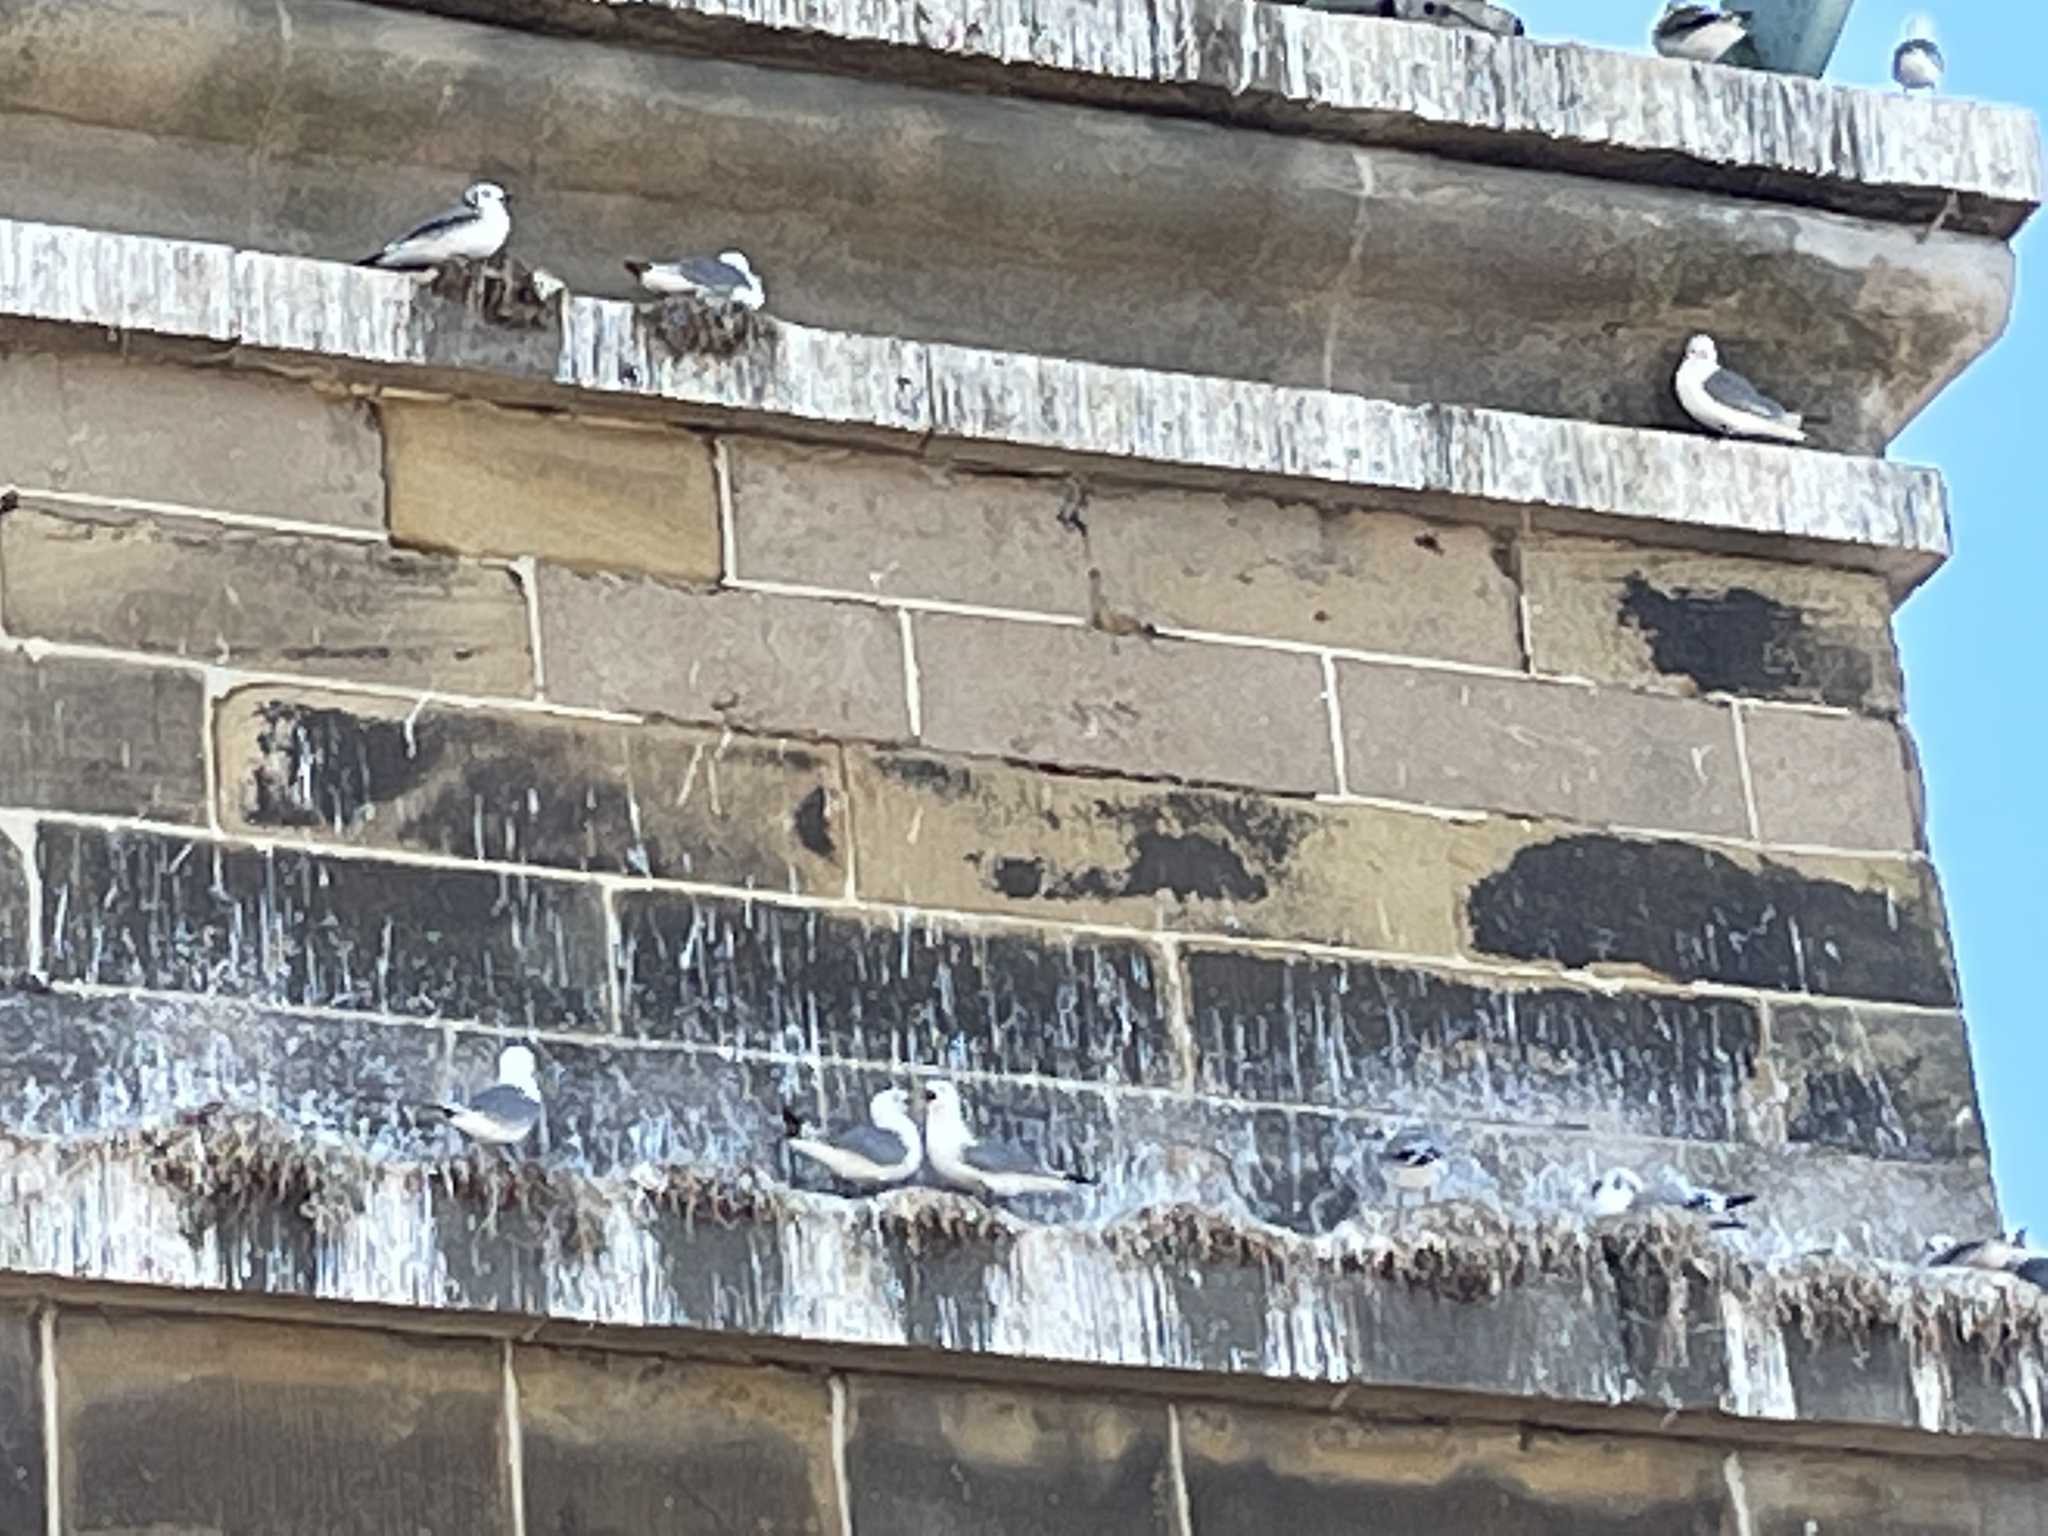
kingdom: Animalia
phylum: Chordata
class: Aves
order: Charadriiformes
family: Laridae
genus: Rissa
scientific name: Rissa tridactyla
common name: Black-legged kittiwake
